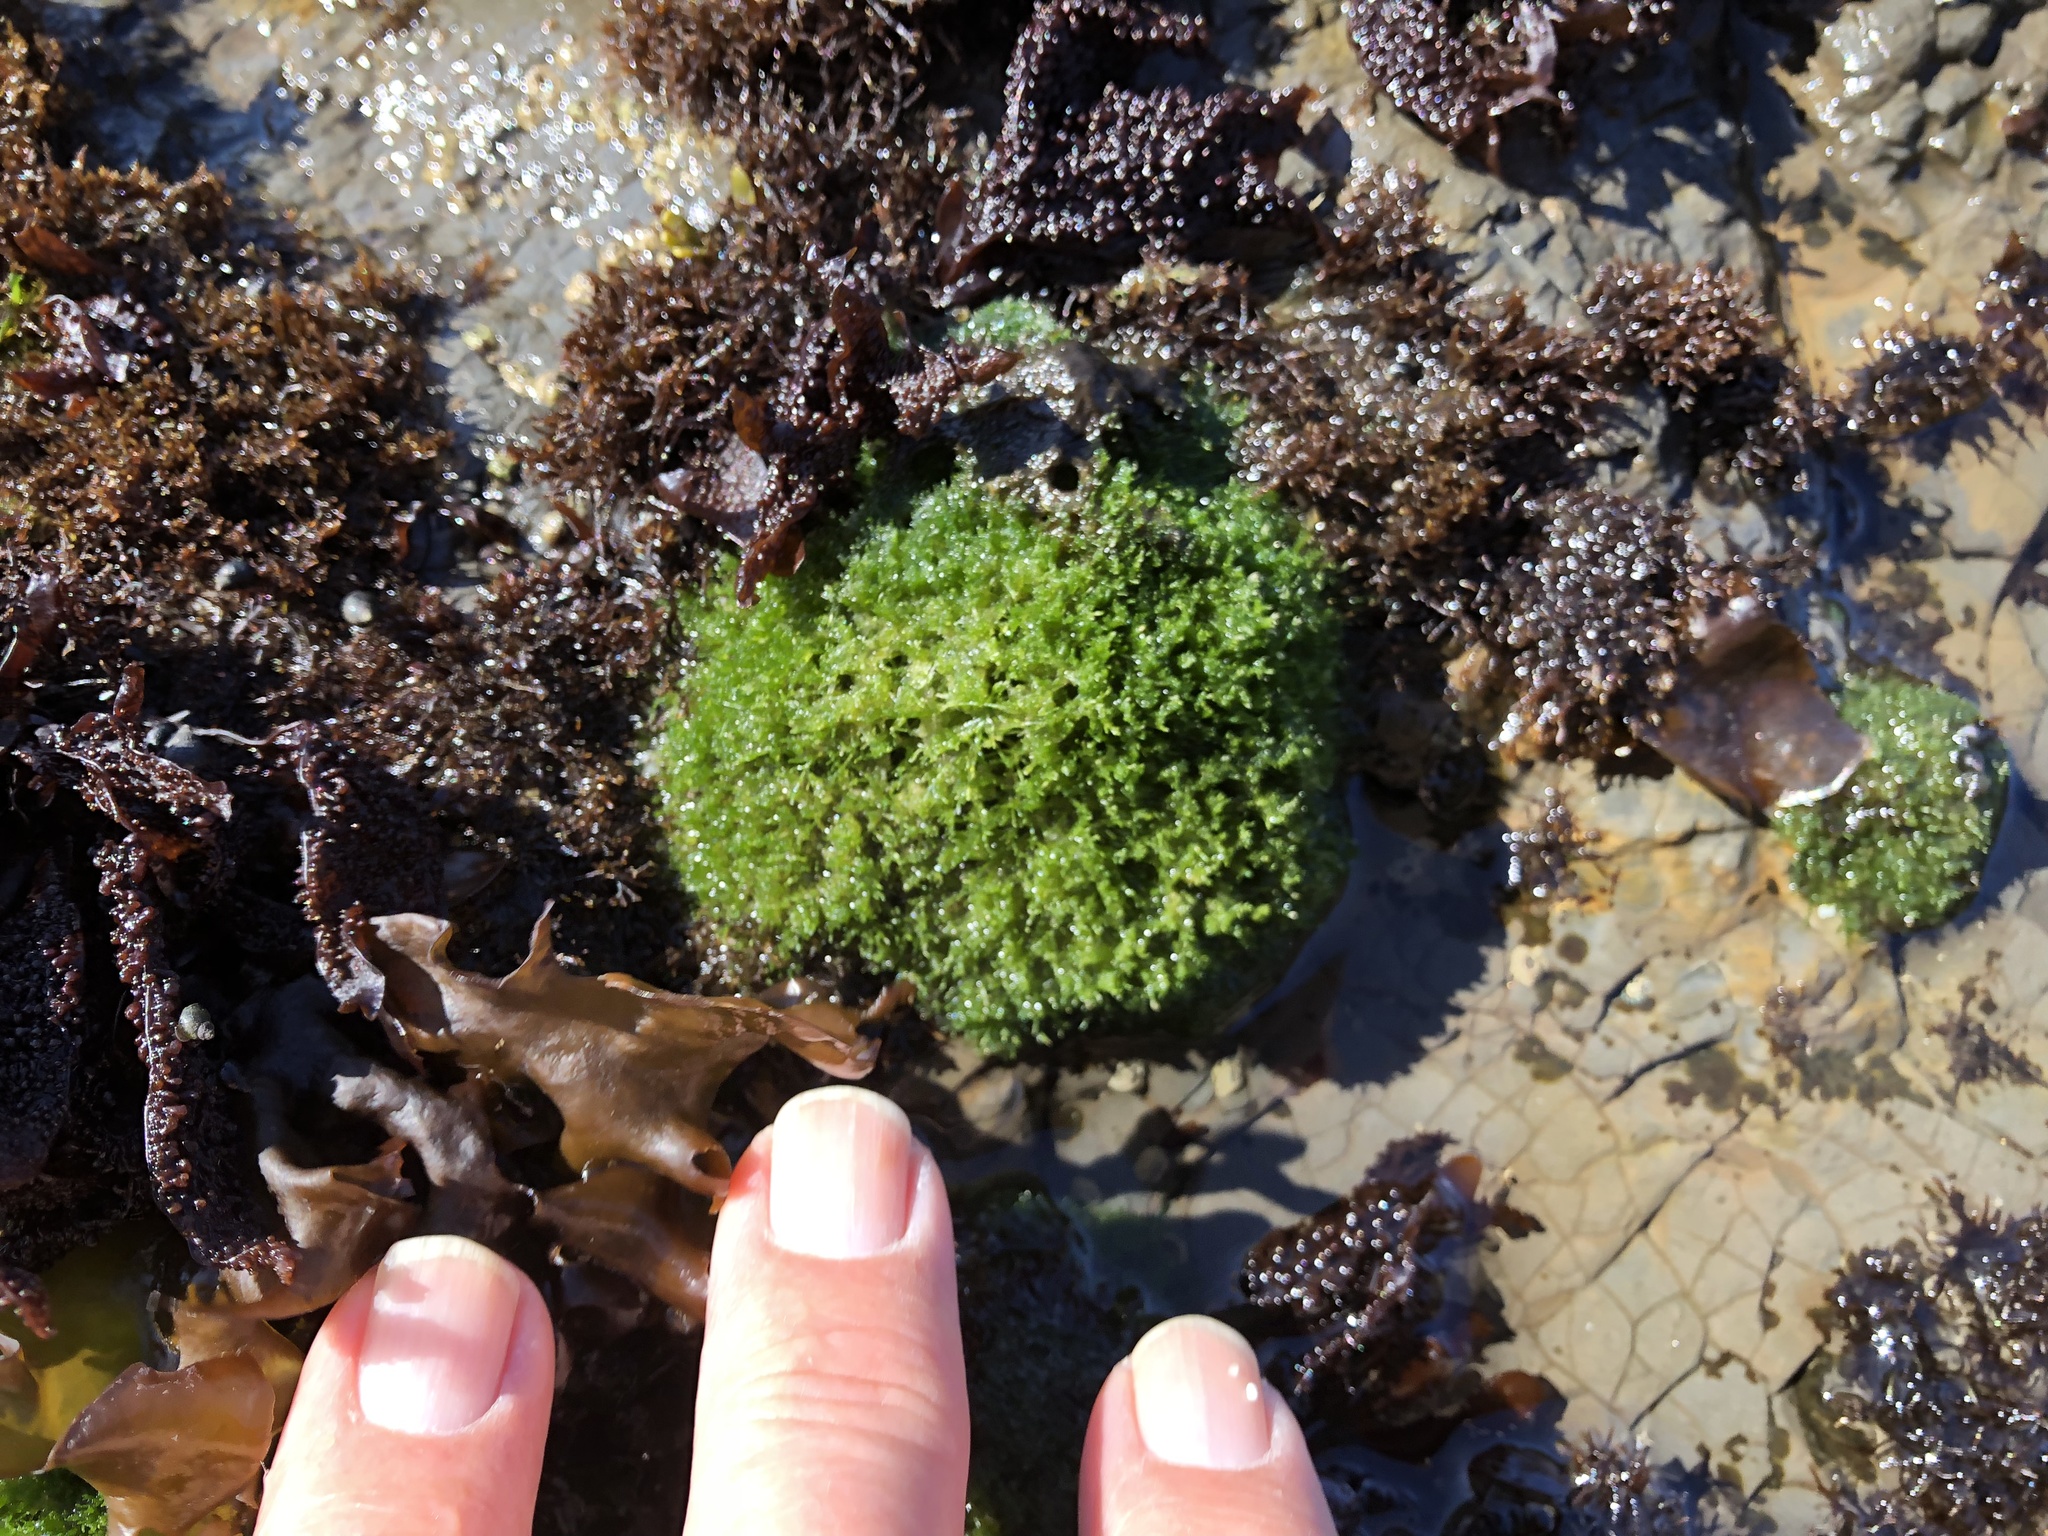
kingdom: Plantae
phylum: Chlorophyta
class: Ulvophyceae
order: Cladophorales
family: Cladophoraceae
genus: Cladophora
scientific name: Cladophora columbiana
